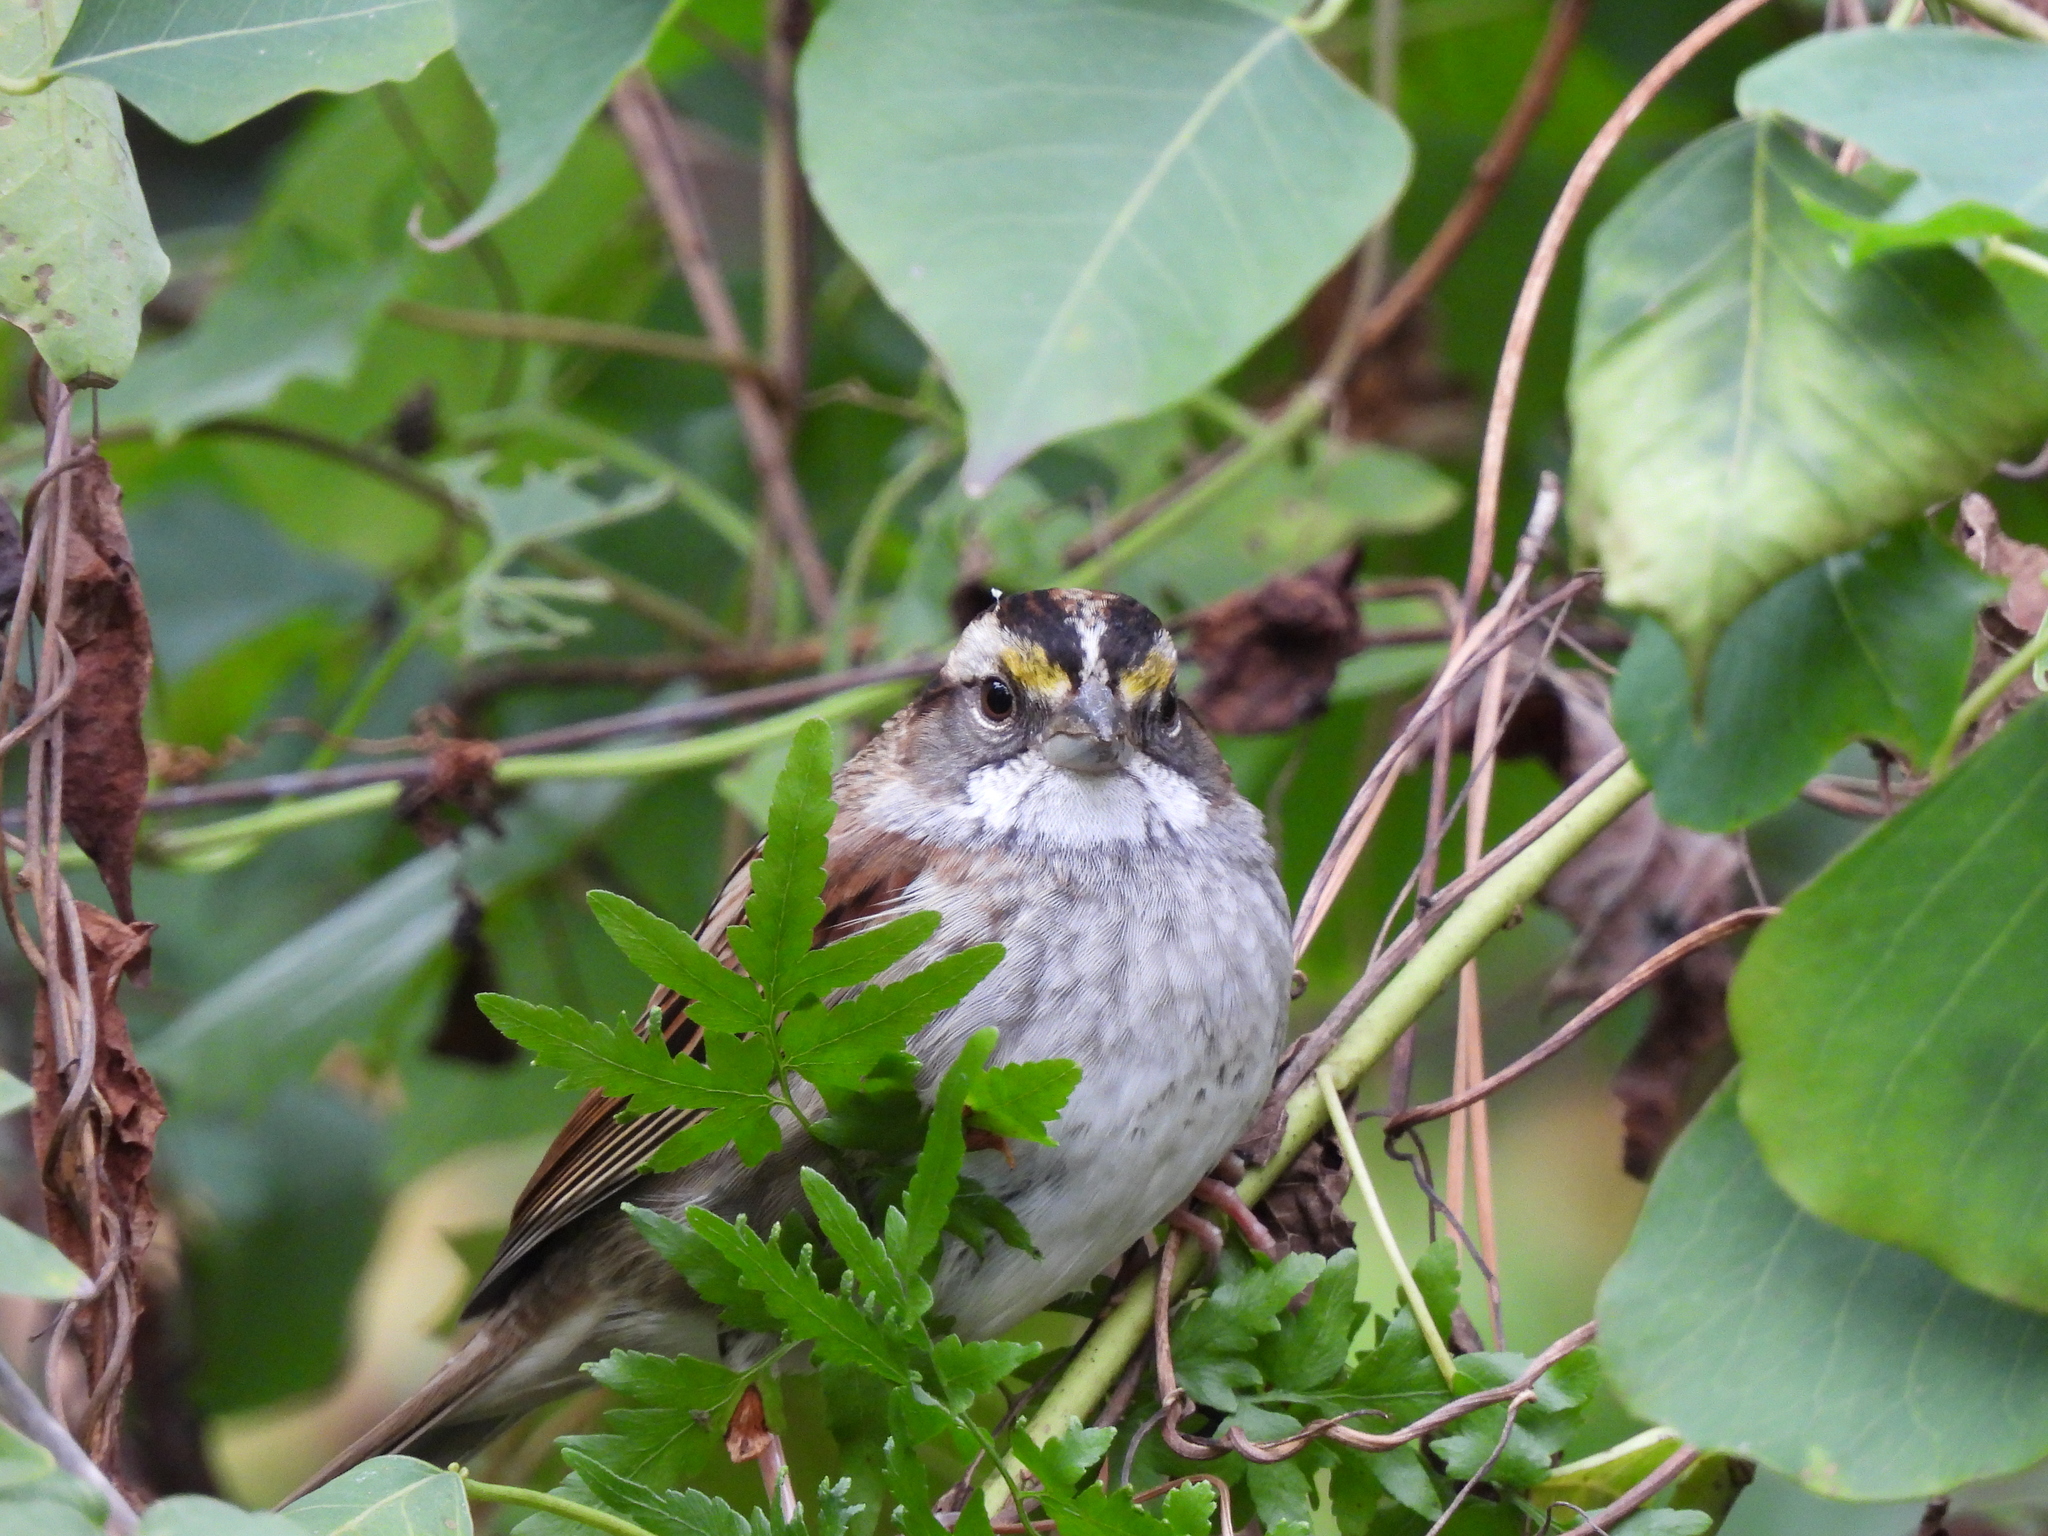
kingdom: Animalia
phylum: Chordata
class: Aves
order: Passeriformes
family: Passerellidae
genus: Zonotrichia
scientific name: Zonotrichia albicollis
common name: White-throated sparrow
